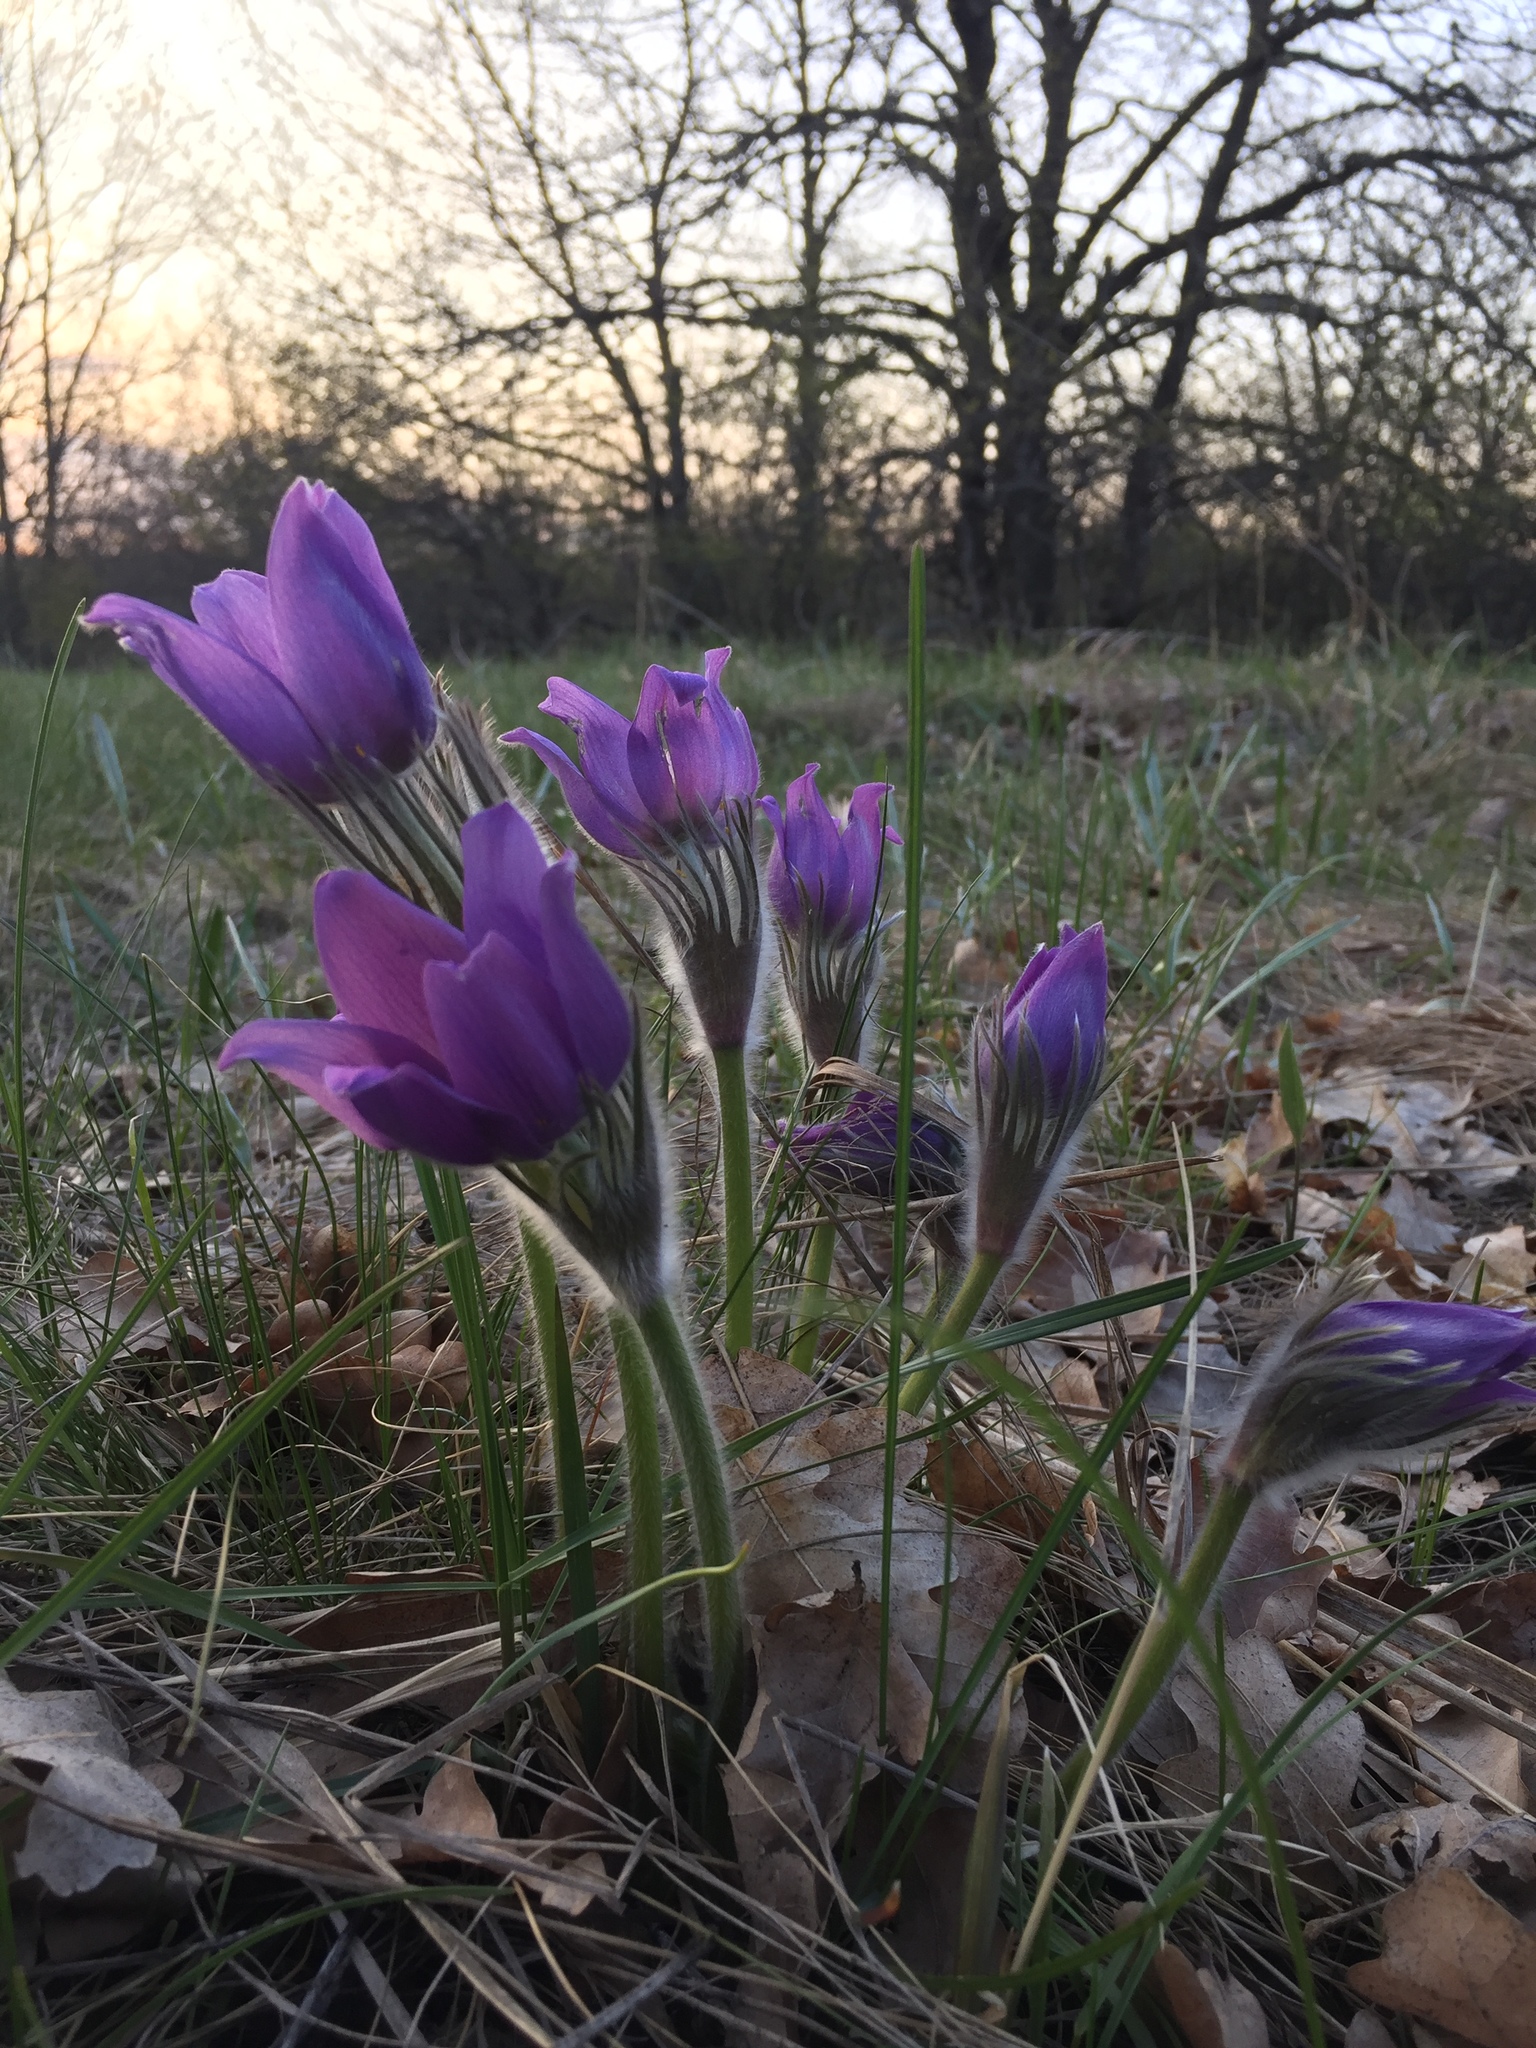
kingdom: Plantae
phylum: Tracheophyta
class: Magnoliopsida
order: Ranunculales
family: Ranunculaceae
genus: Pulsatilla
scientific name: Pulsatilla patens
